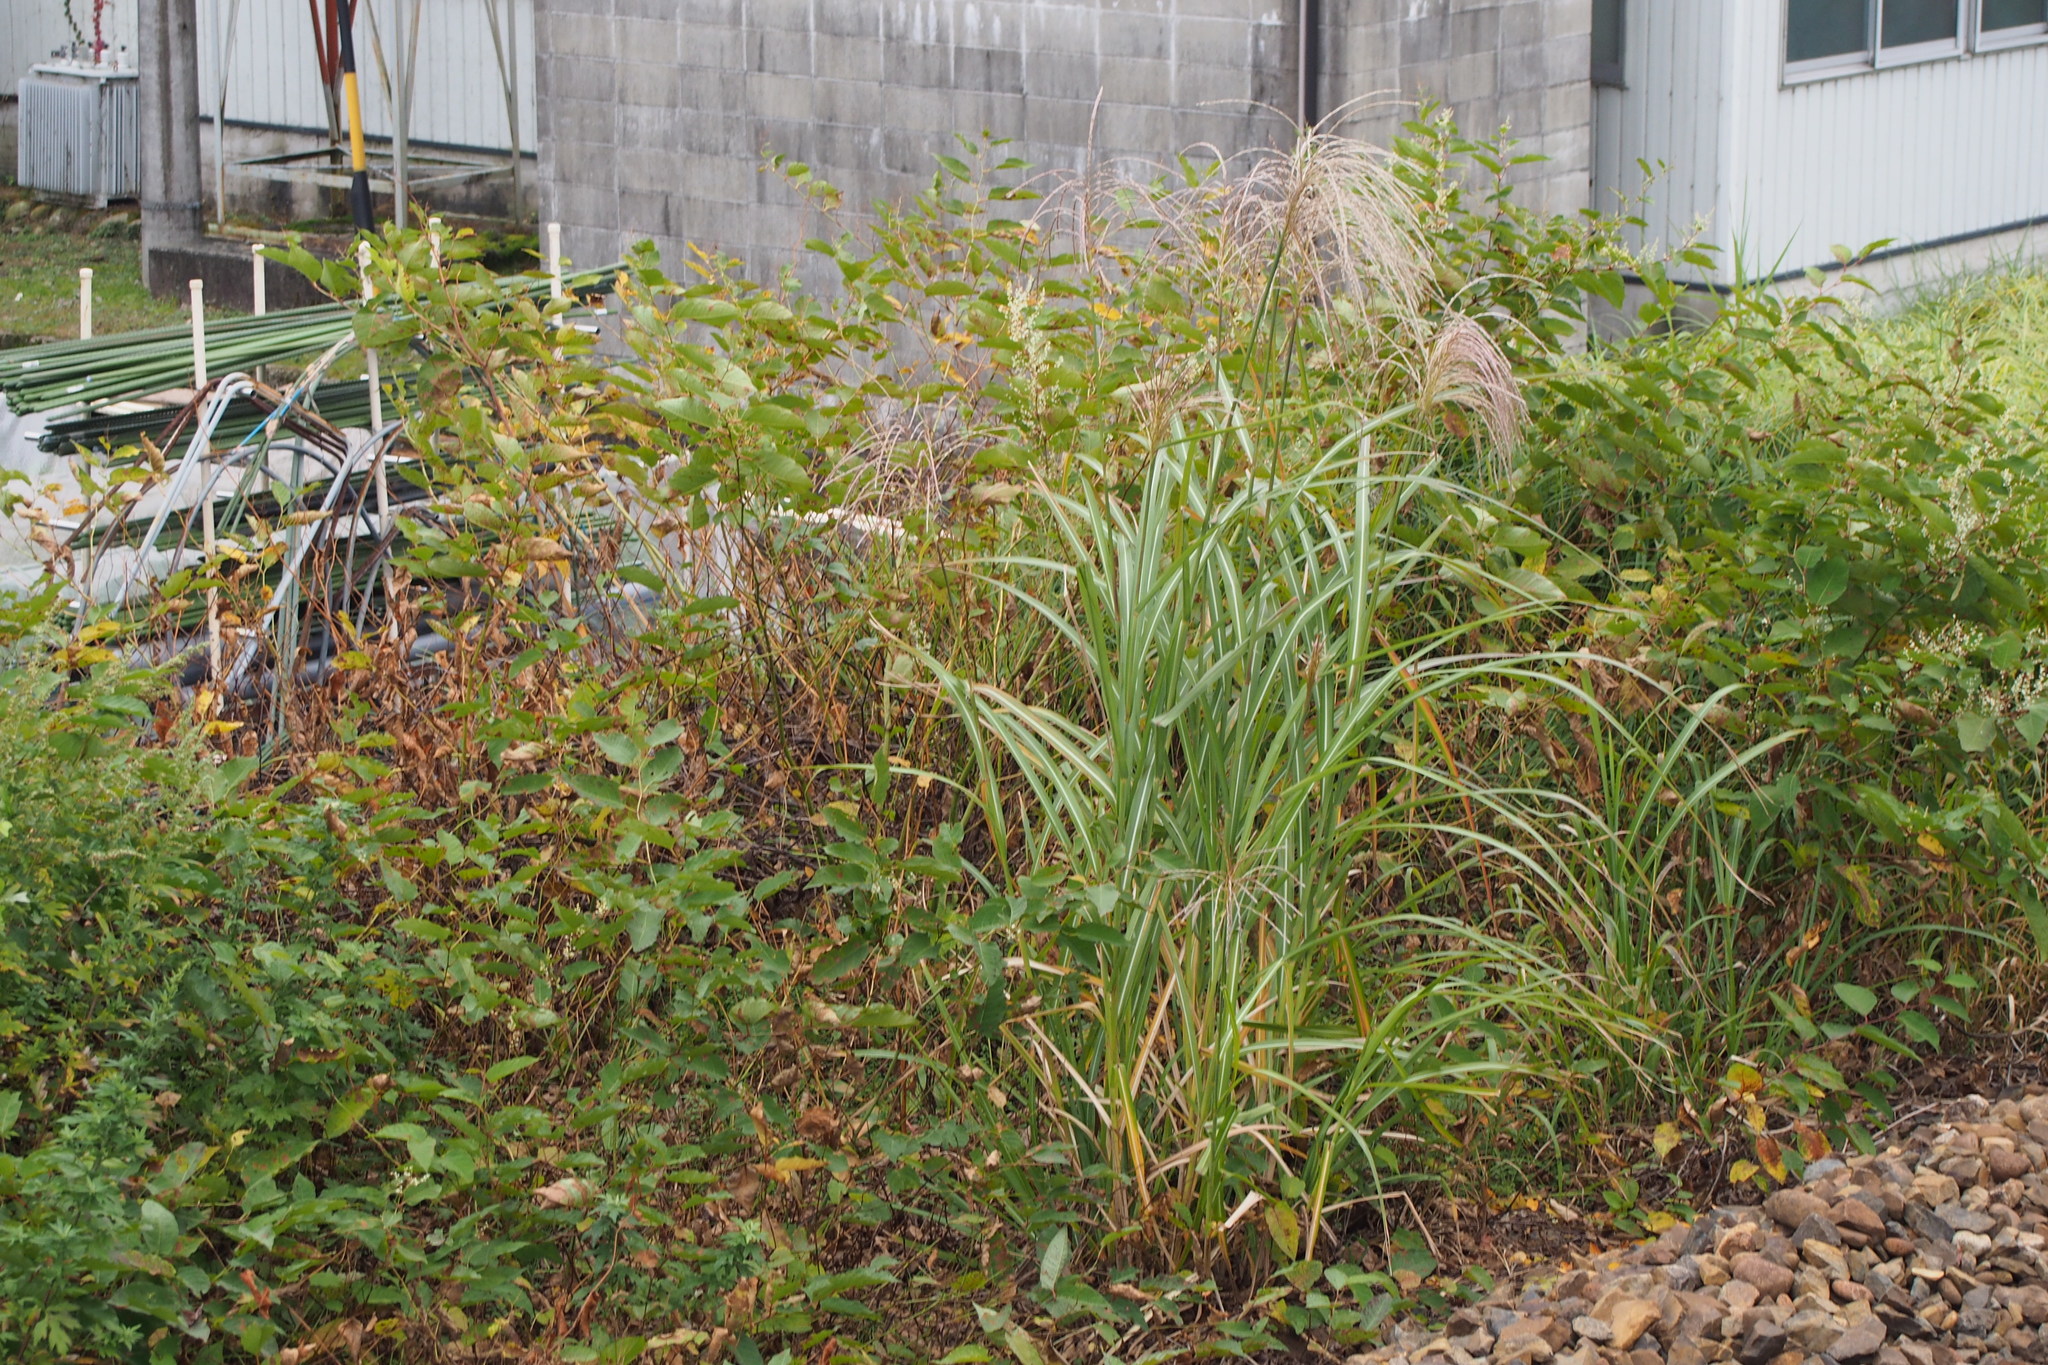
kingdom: Plantae
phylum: Tracheophyta
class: Liliopsida
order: Poales
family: Poaceae
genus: Miscanthus
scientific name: Miscanthus sinensis
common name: Chinese silvergrass
